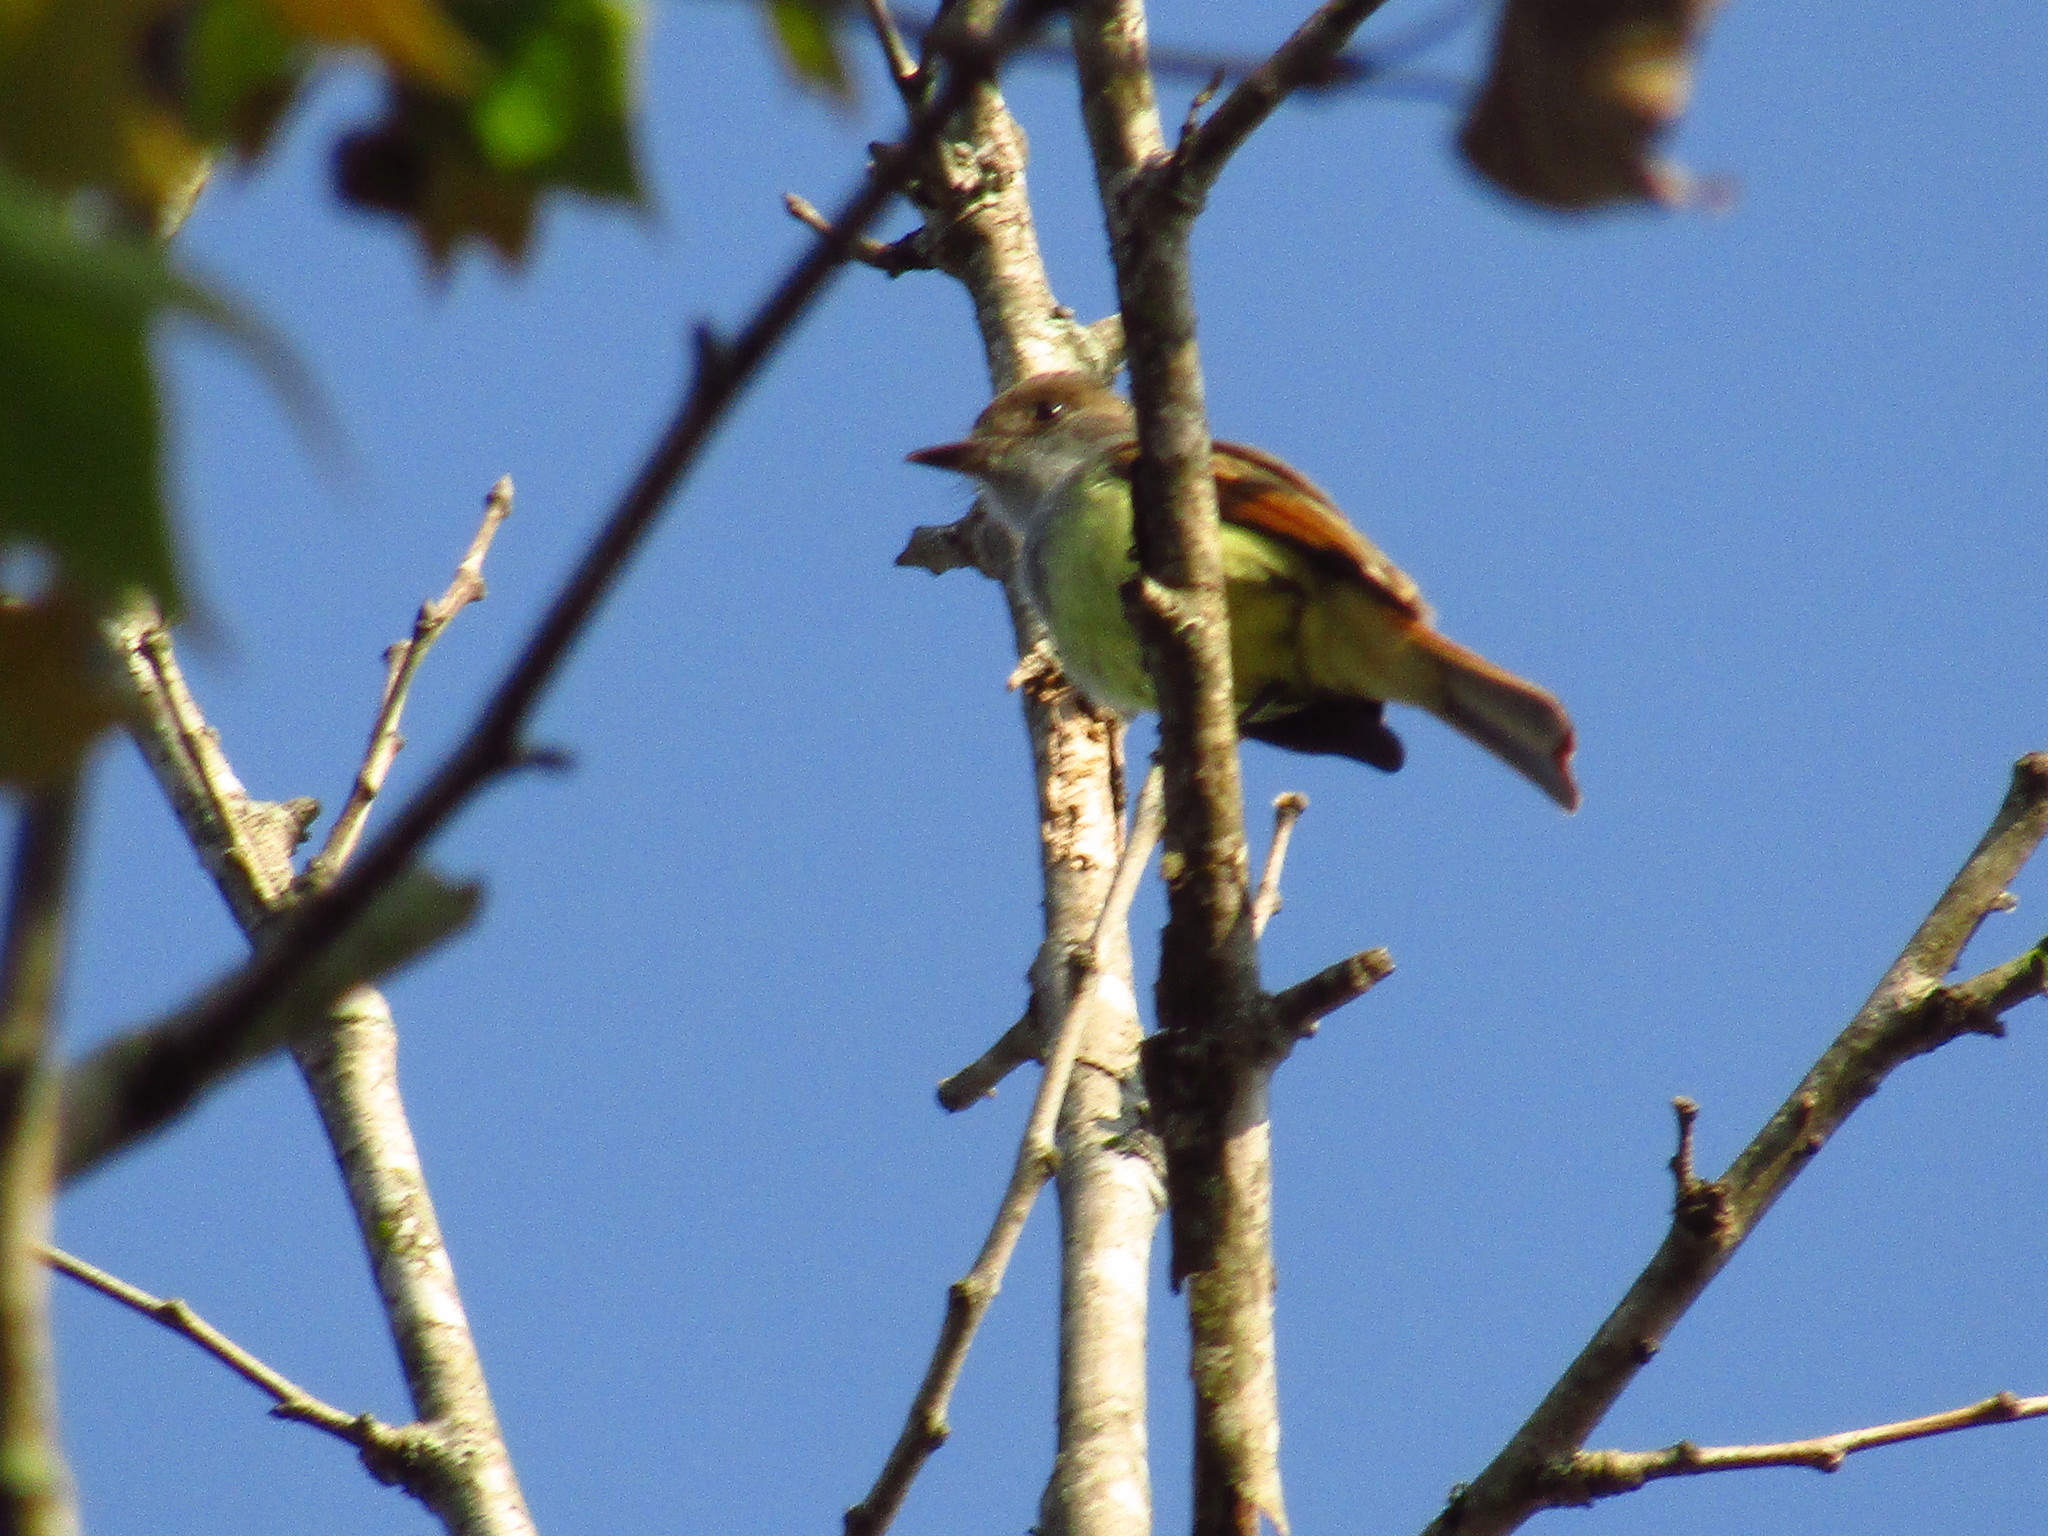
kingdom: Animalia
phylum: Chordata
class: Aves
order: Passeriformes
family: Tyrannidae
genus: Myiarchus
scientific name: Myiarchus tuberculifer
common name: Dusky-capped flycatcher
